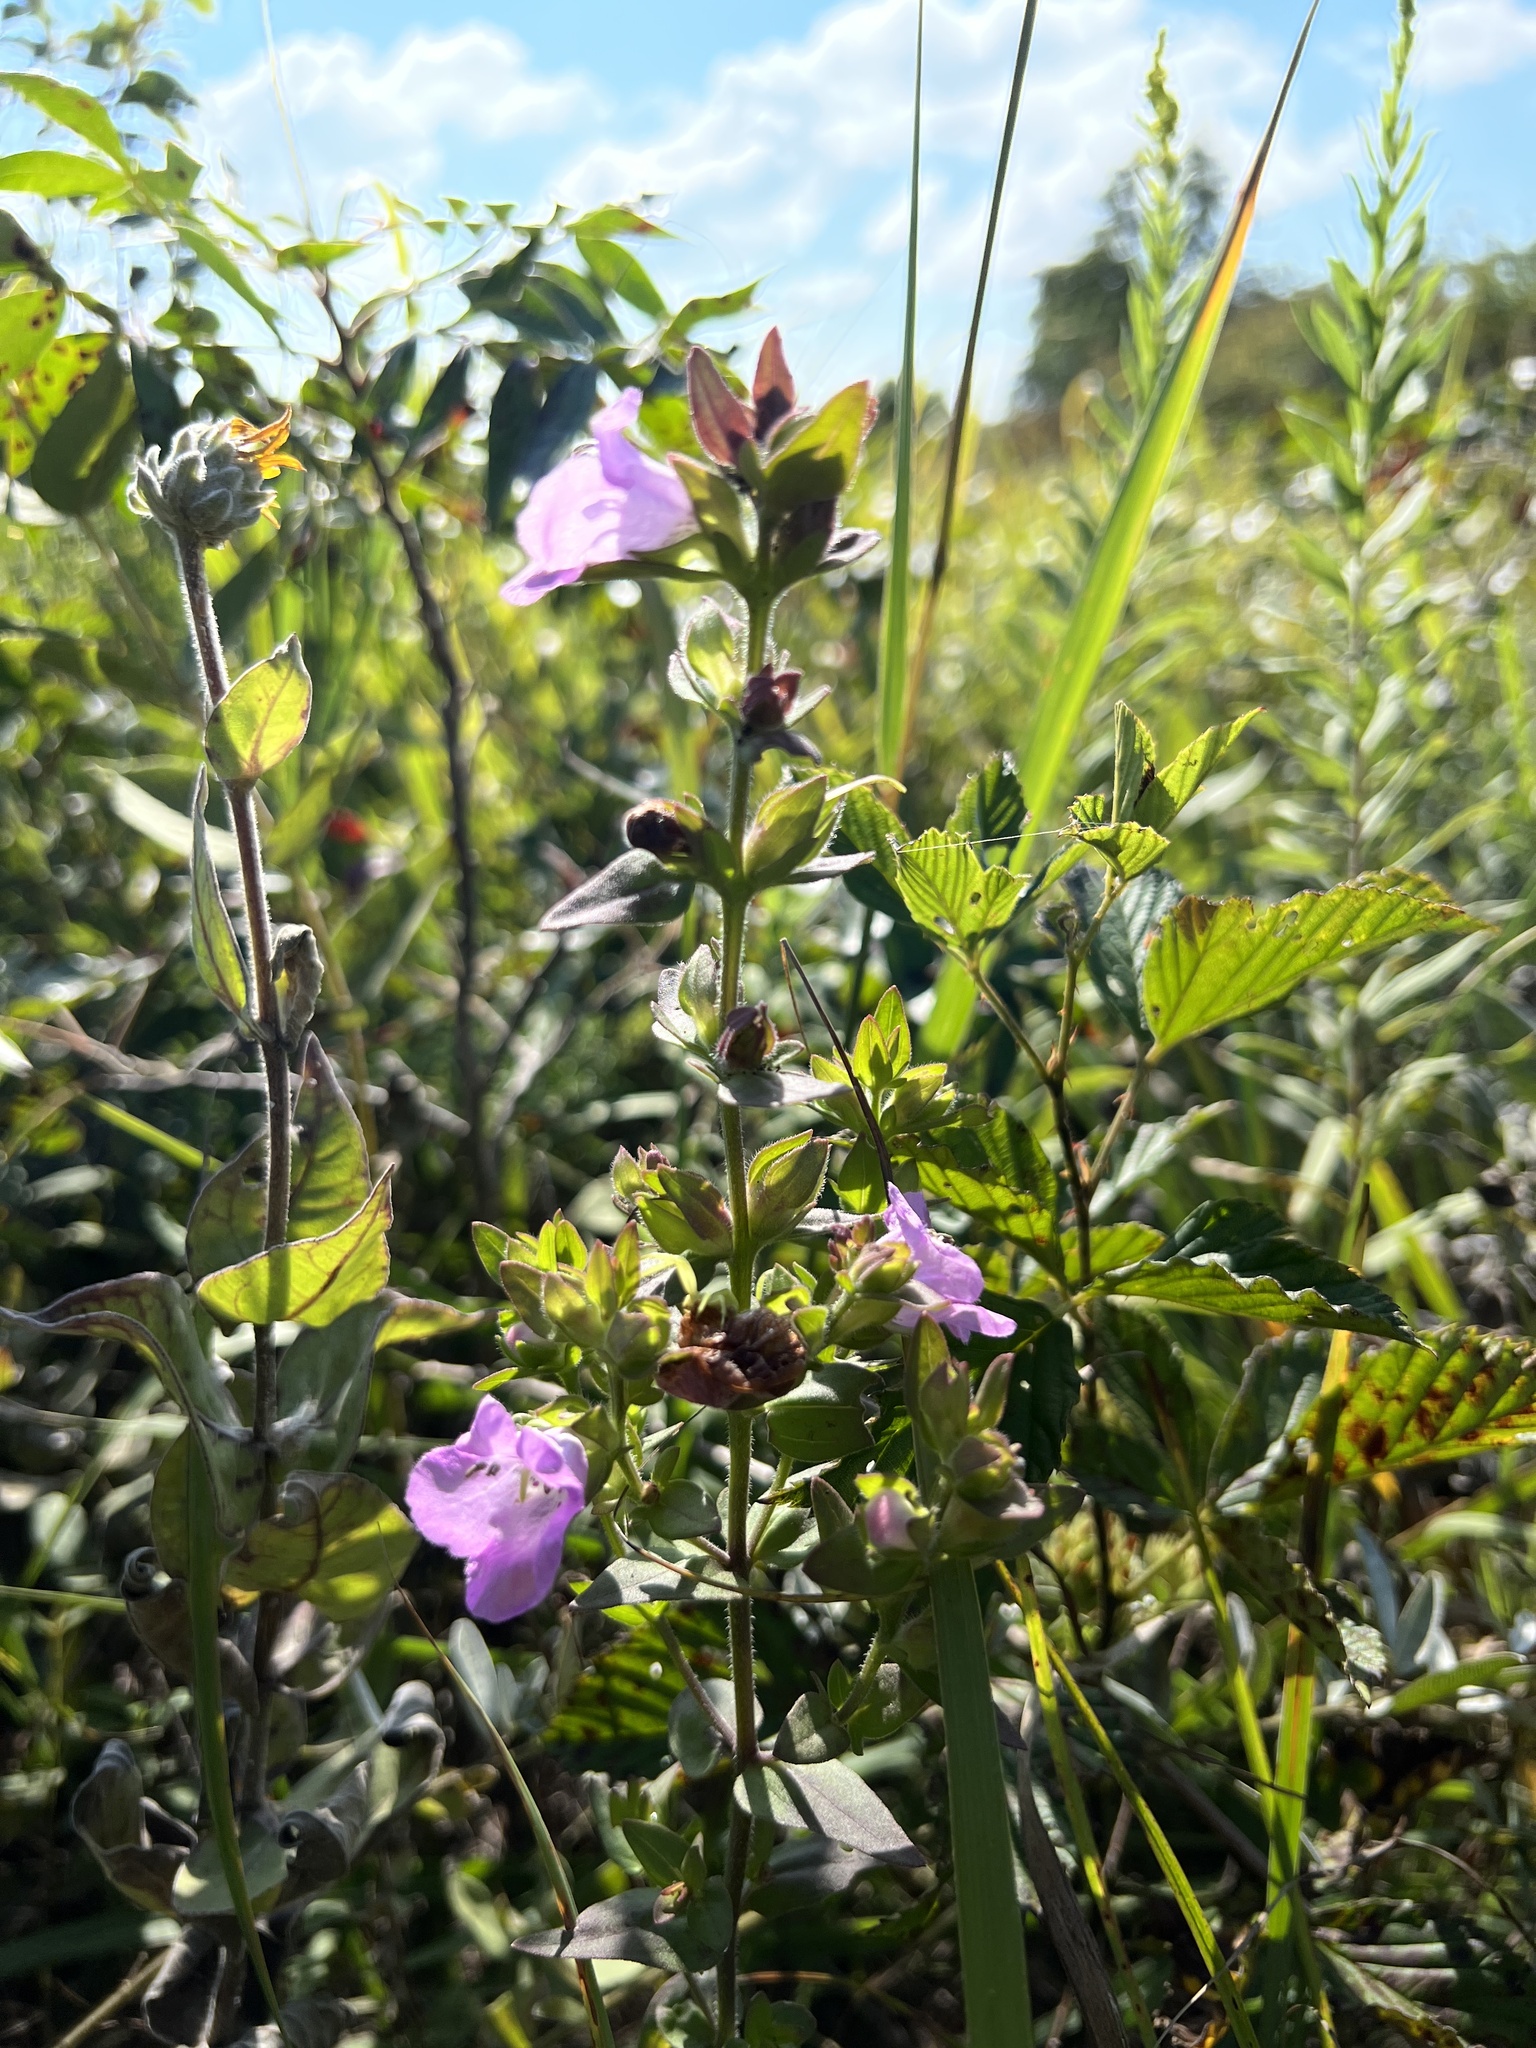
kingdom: Plantae
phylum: Tracheophyta
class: Magnoliopsida
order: Lamiales
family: Orobanchaceae
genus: Agalinis
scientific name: Agalinis auriculata
